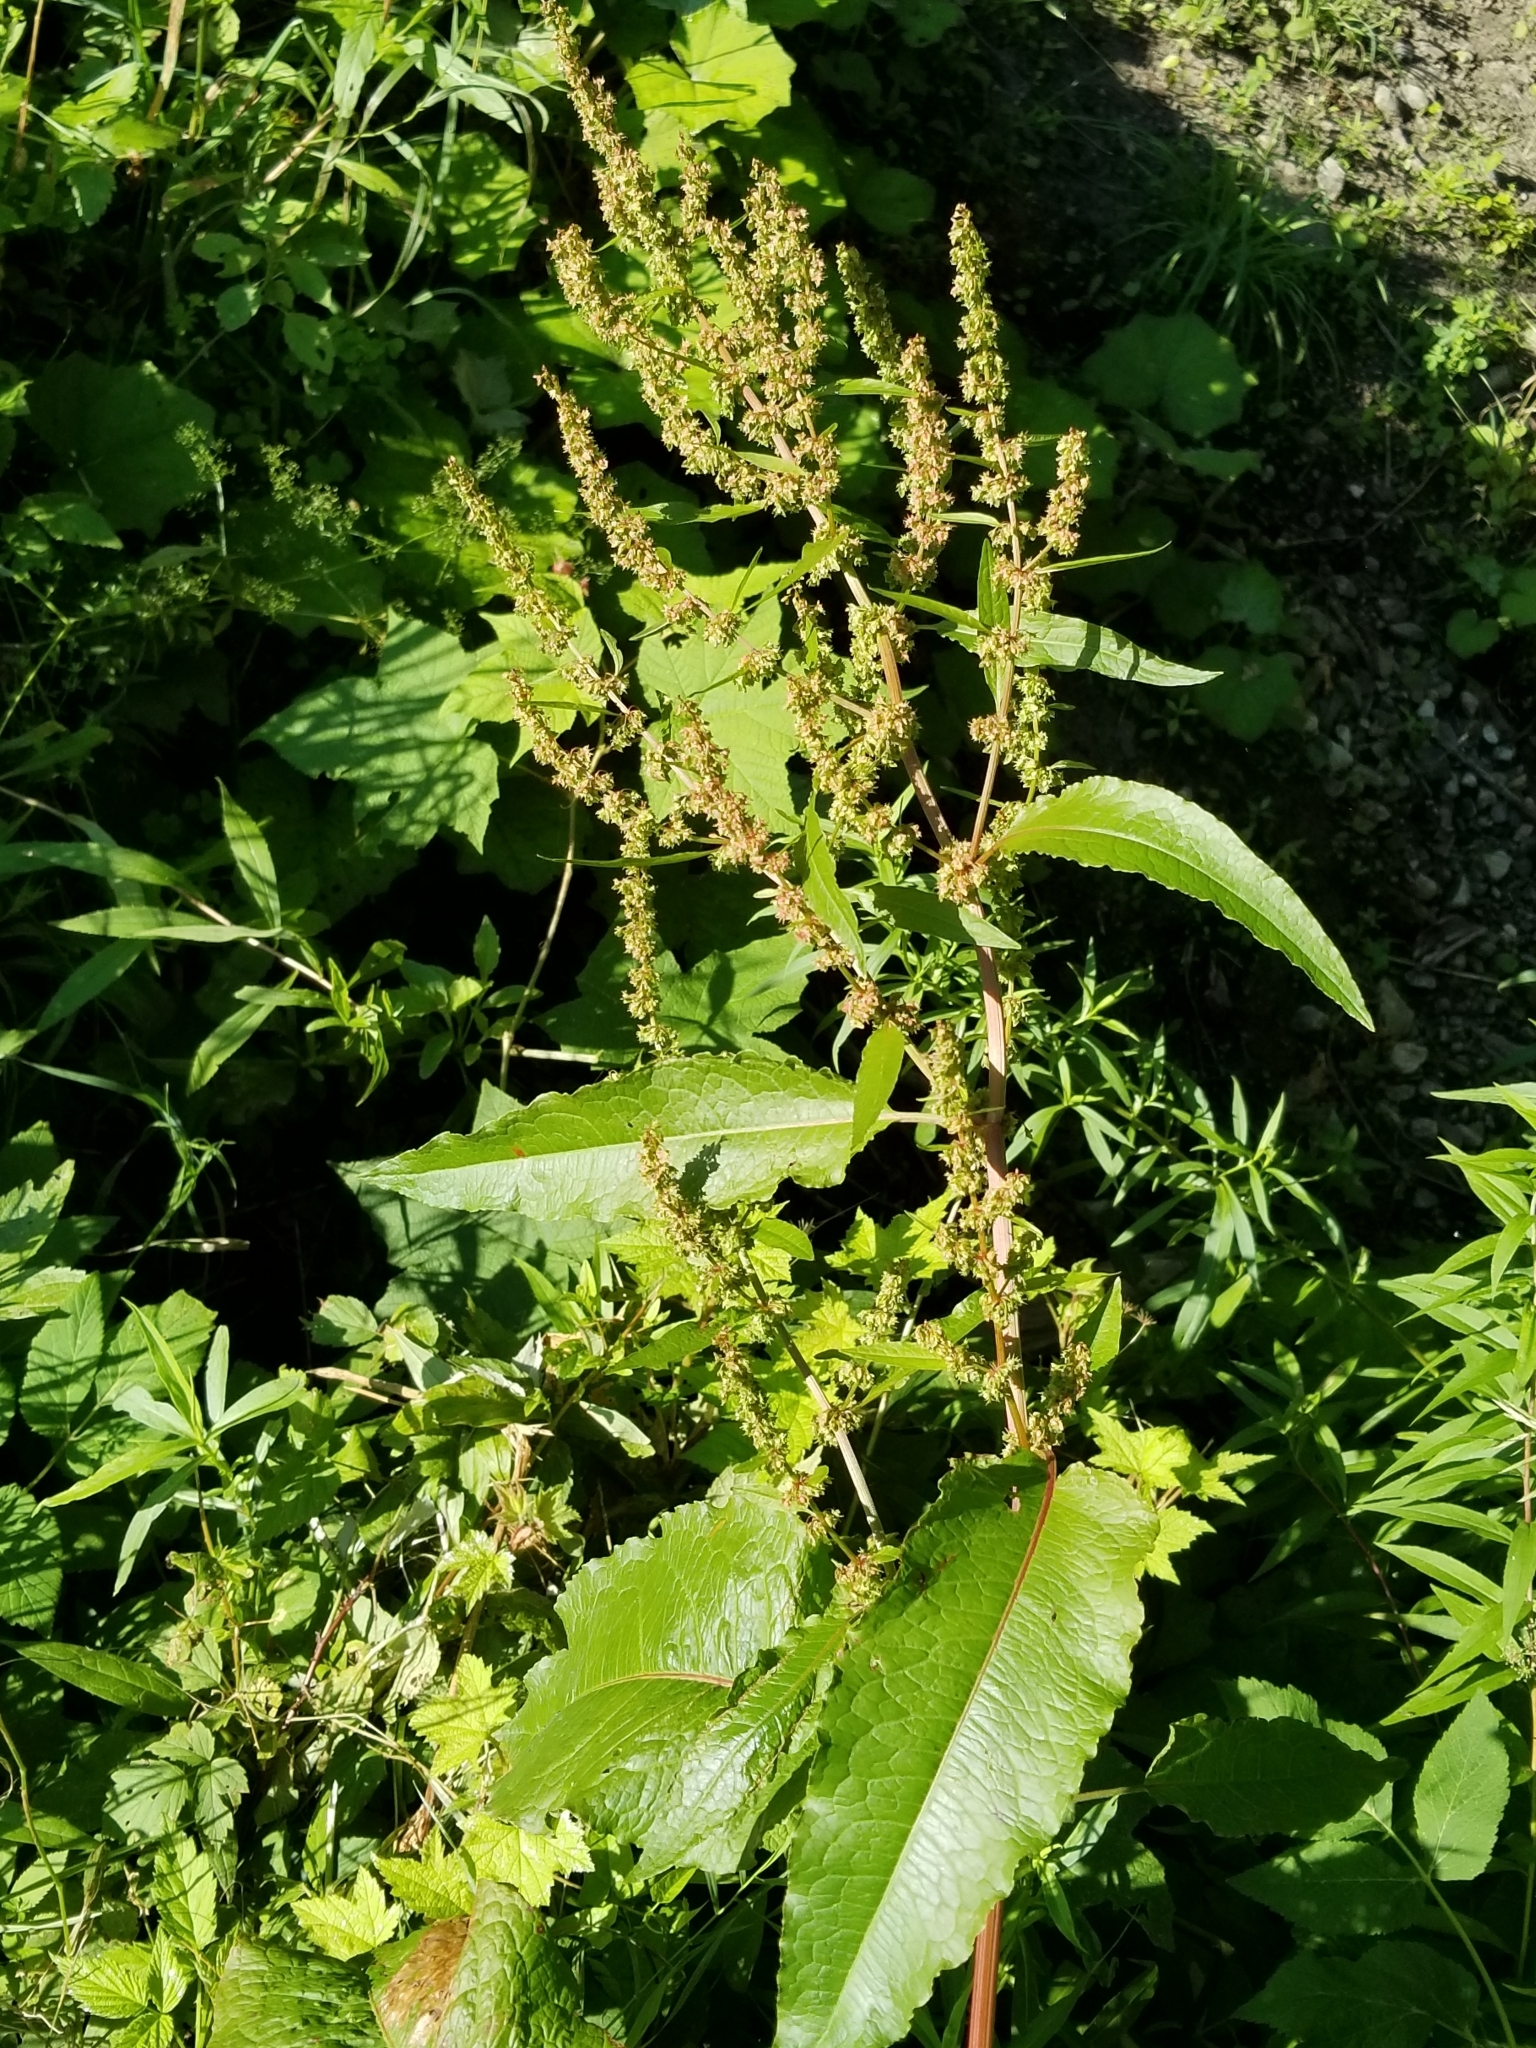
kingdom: Plantae
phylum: Tracheophyta
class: Magnoliopsida
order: Caryophyllales
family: Polygonaceae
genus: Rumex
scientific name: Rumex crispus
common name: Curled dock
